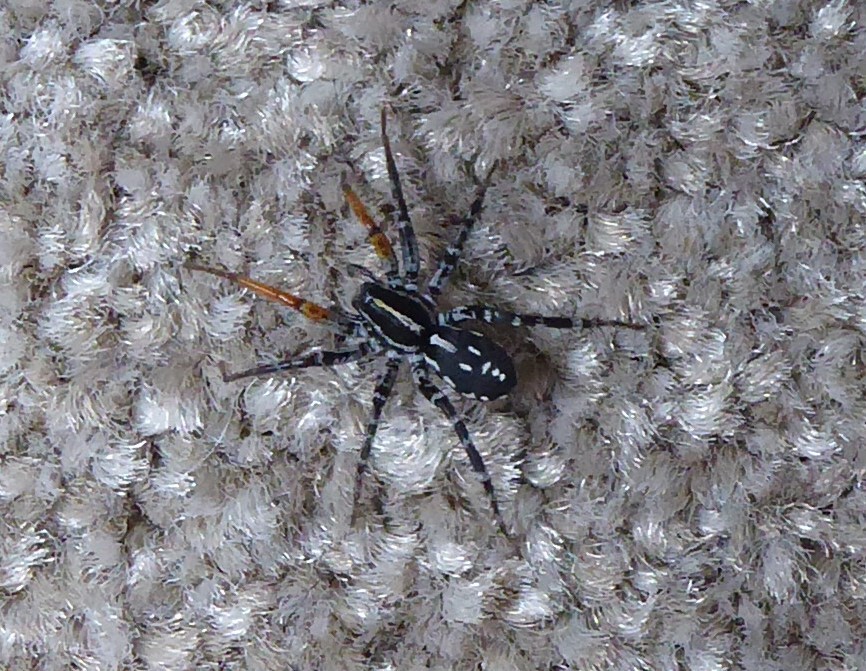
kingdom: Animalia
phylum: Arthropoda
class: Arachnida
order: Araneae
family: Corinnidae
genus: Nyssus
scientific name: Nyssus coloripes
